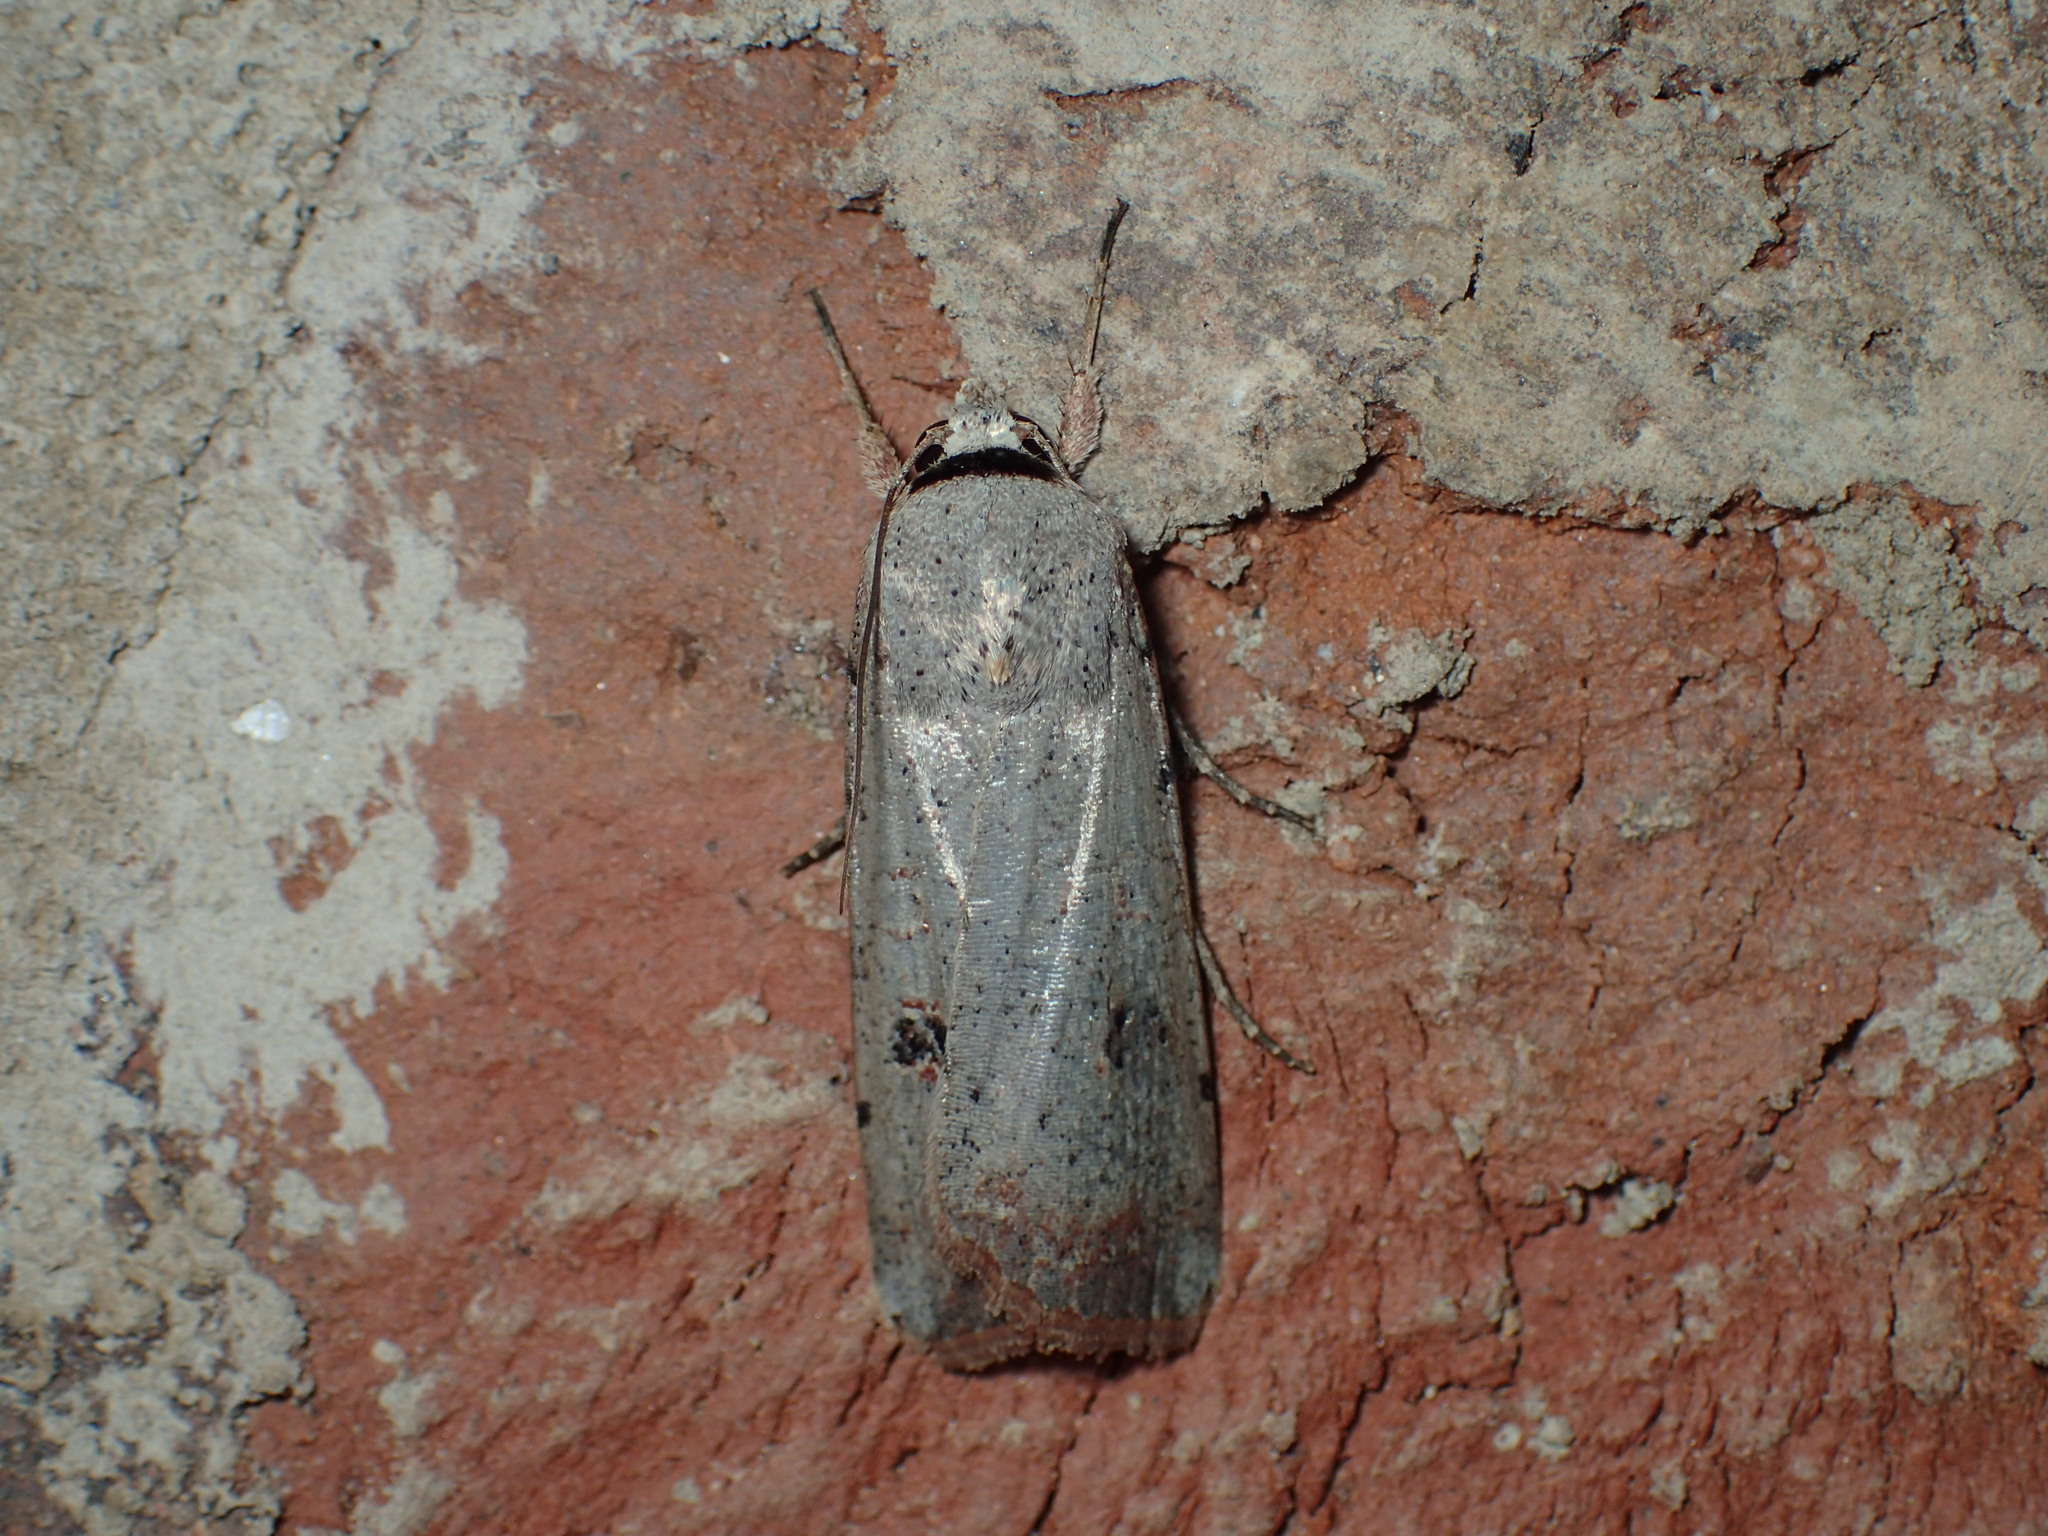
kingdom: Animalia
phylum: Arthropoda
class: Insecta
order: Lepidoptera
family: Noctuidae
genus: Anicla
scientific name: Anicla infecta
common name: Green cutworm
